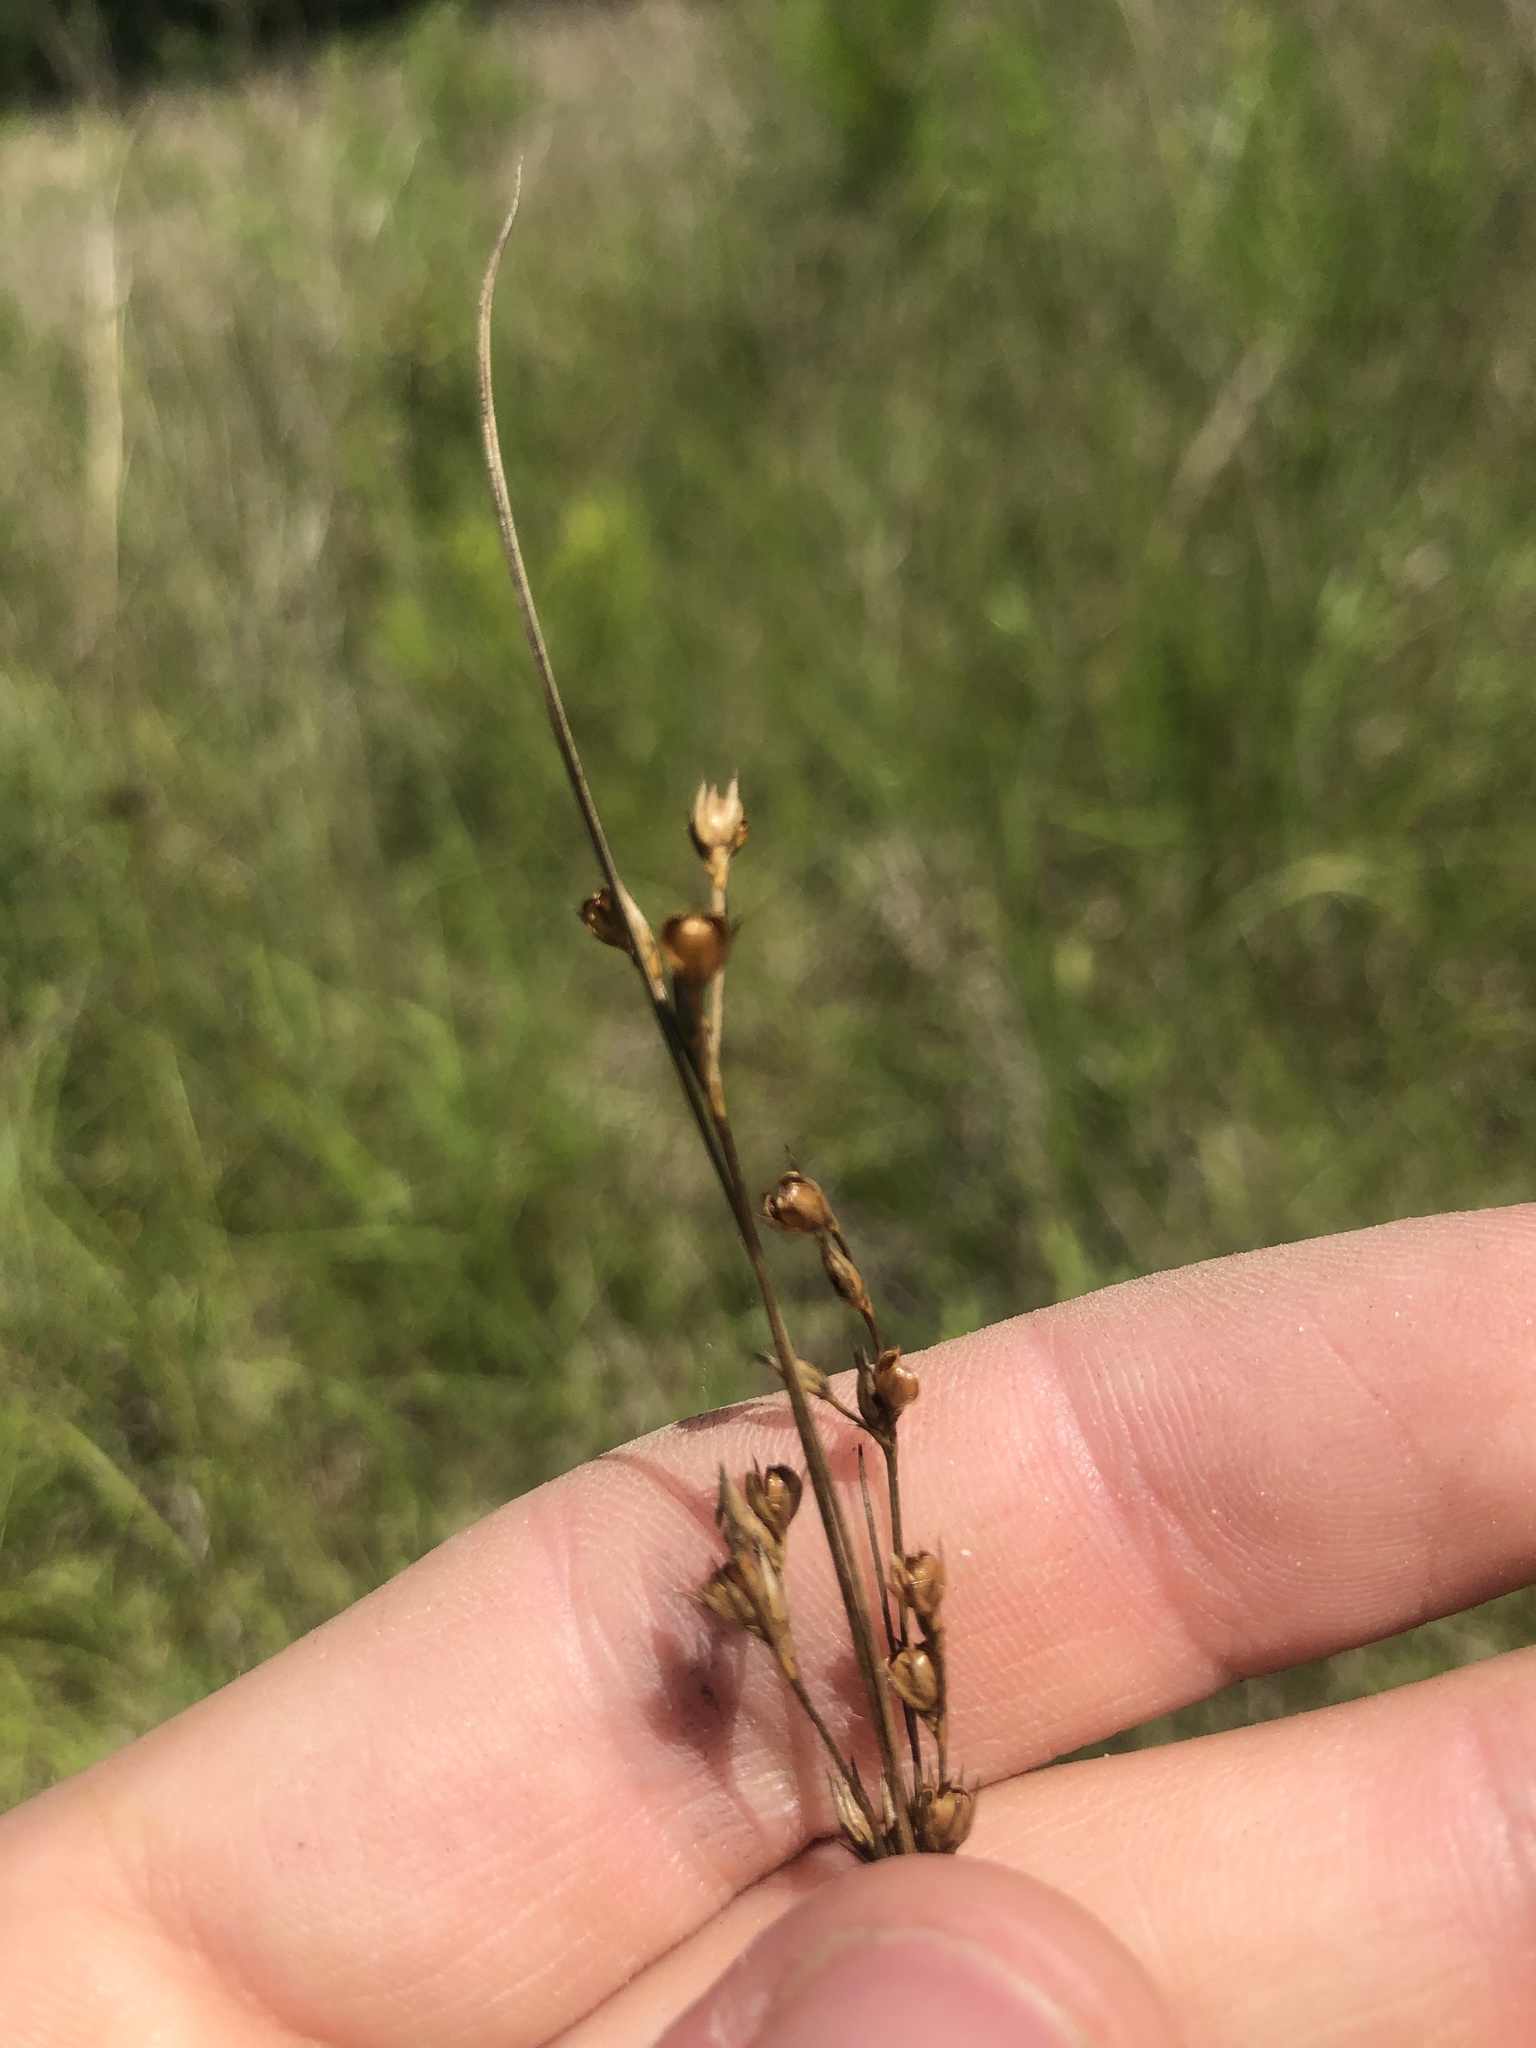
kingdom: Plantae
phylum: Tracheophyta
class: Liliopsida
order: Poales
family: Juncaceae
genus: Juncus
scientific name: Juncus dichotomus
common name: Forked rush
